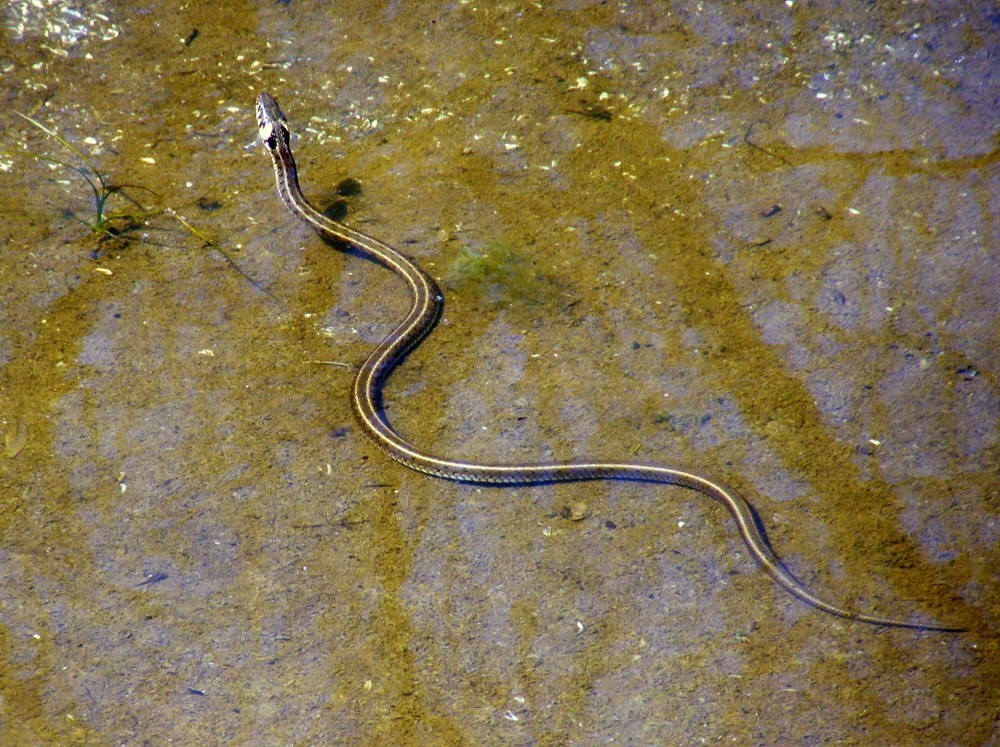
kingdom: Animalia
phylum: Chordata
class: Squamata
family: Colubridae
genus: Natrix
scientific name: Natrix natrix
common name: Grass snake
